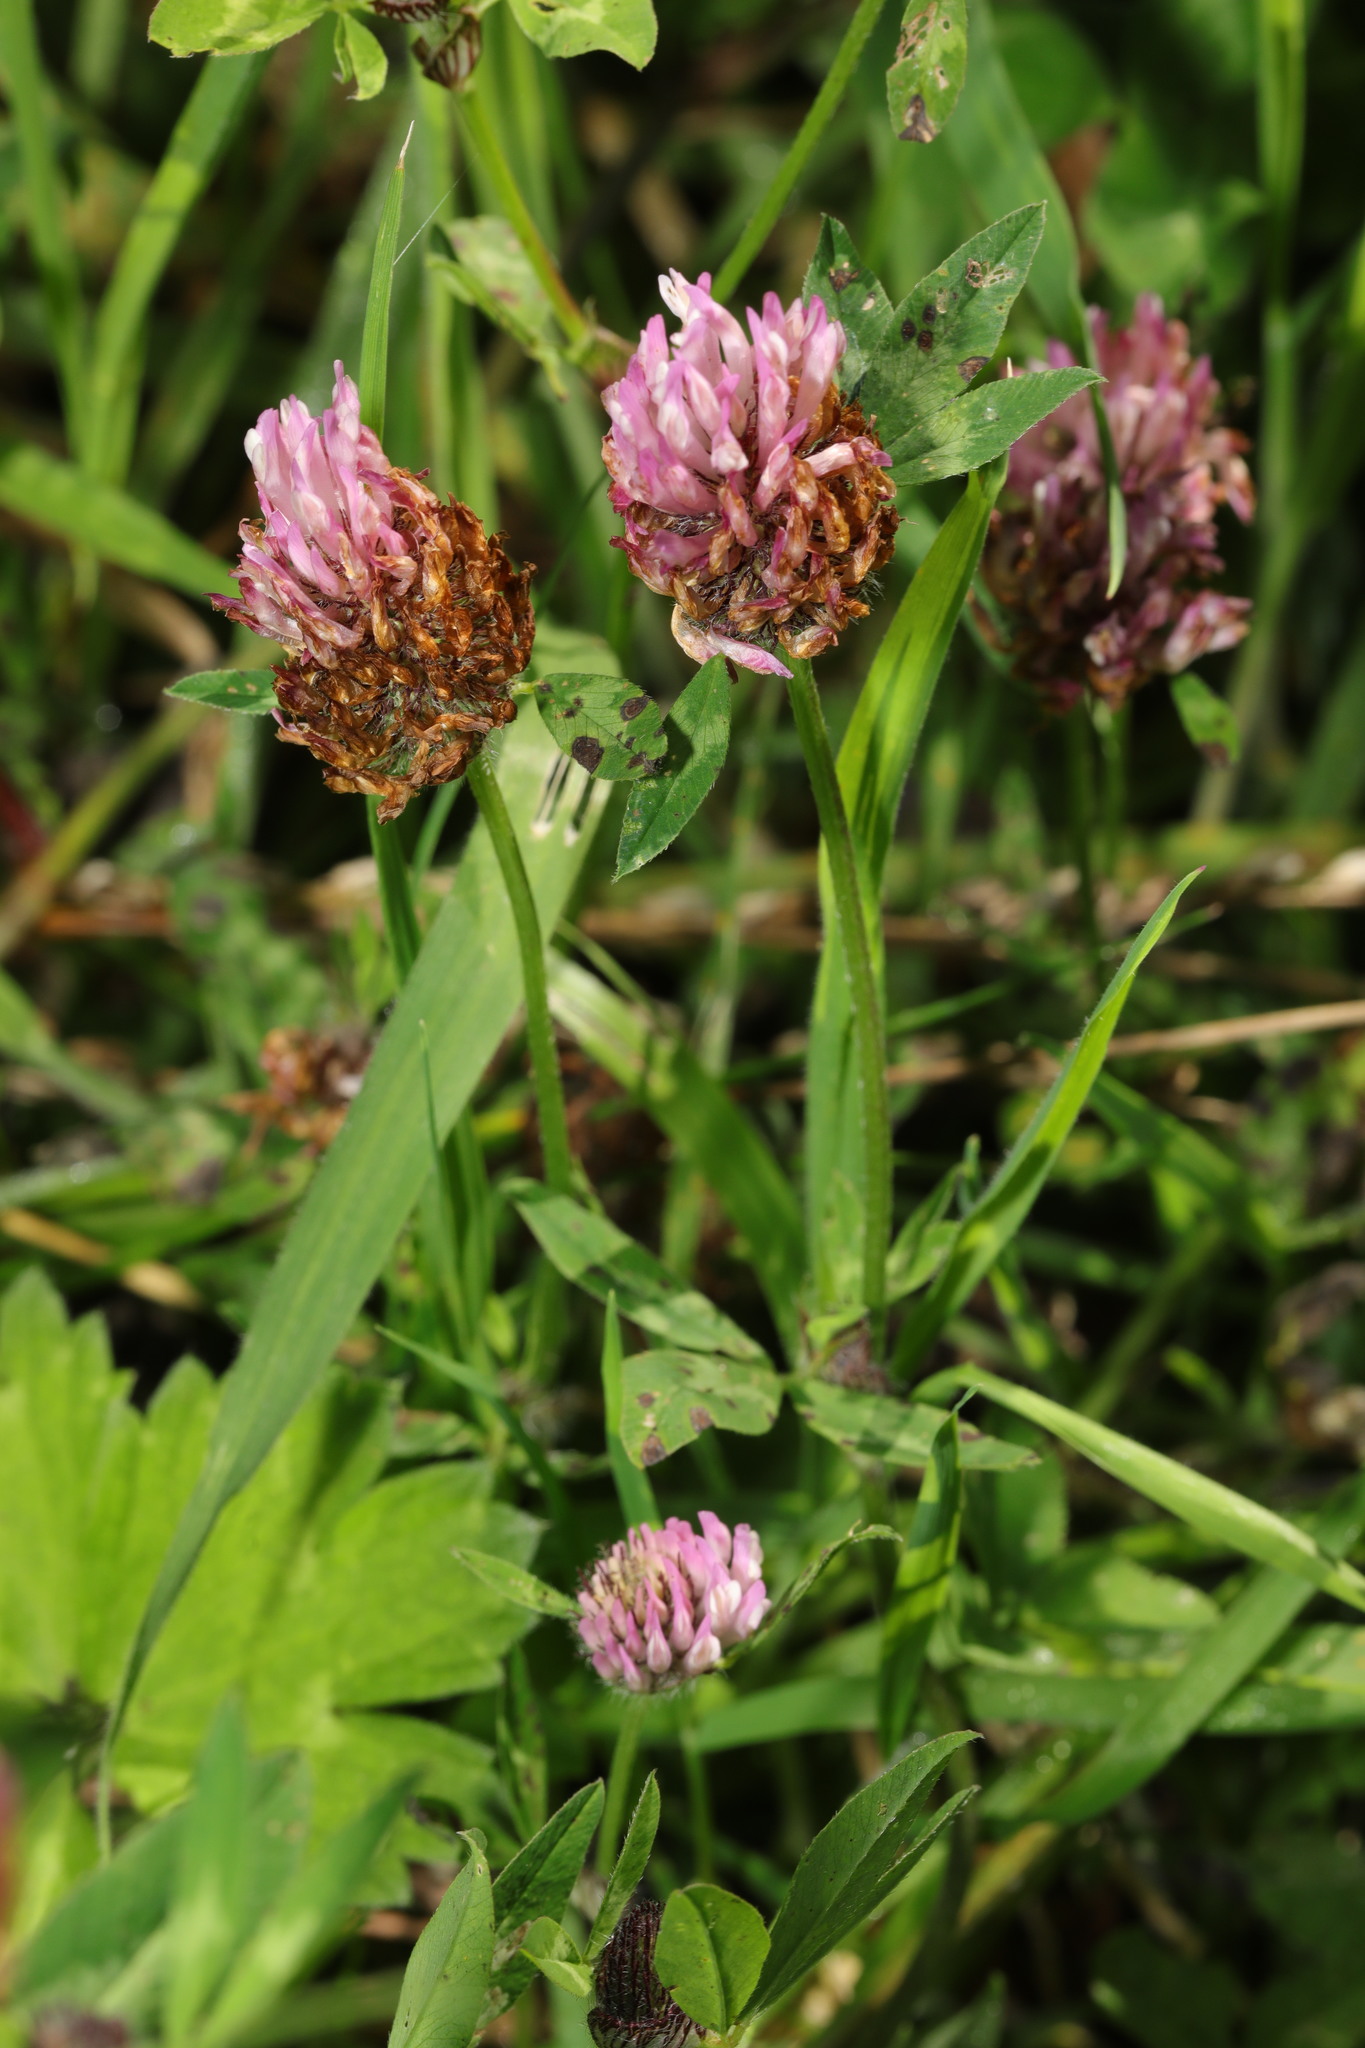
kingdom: Plantae
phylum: Tracheophyta
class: Magnoliopsida
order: Fabales
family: Fabaceae
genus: Trifolium
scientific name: Trifolium pratense
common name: Red clover
